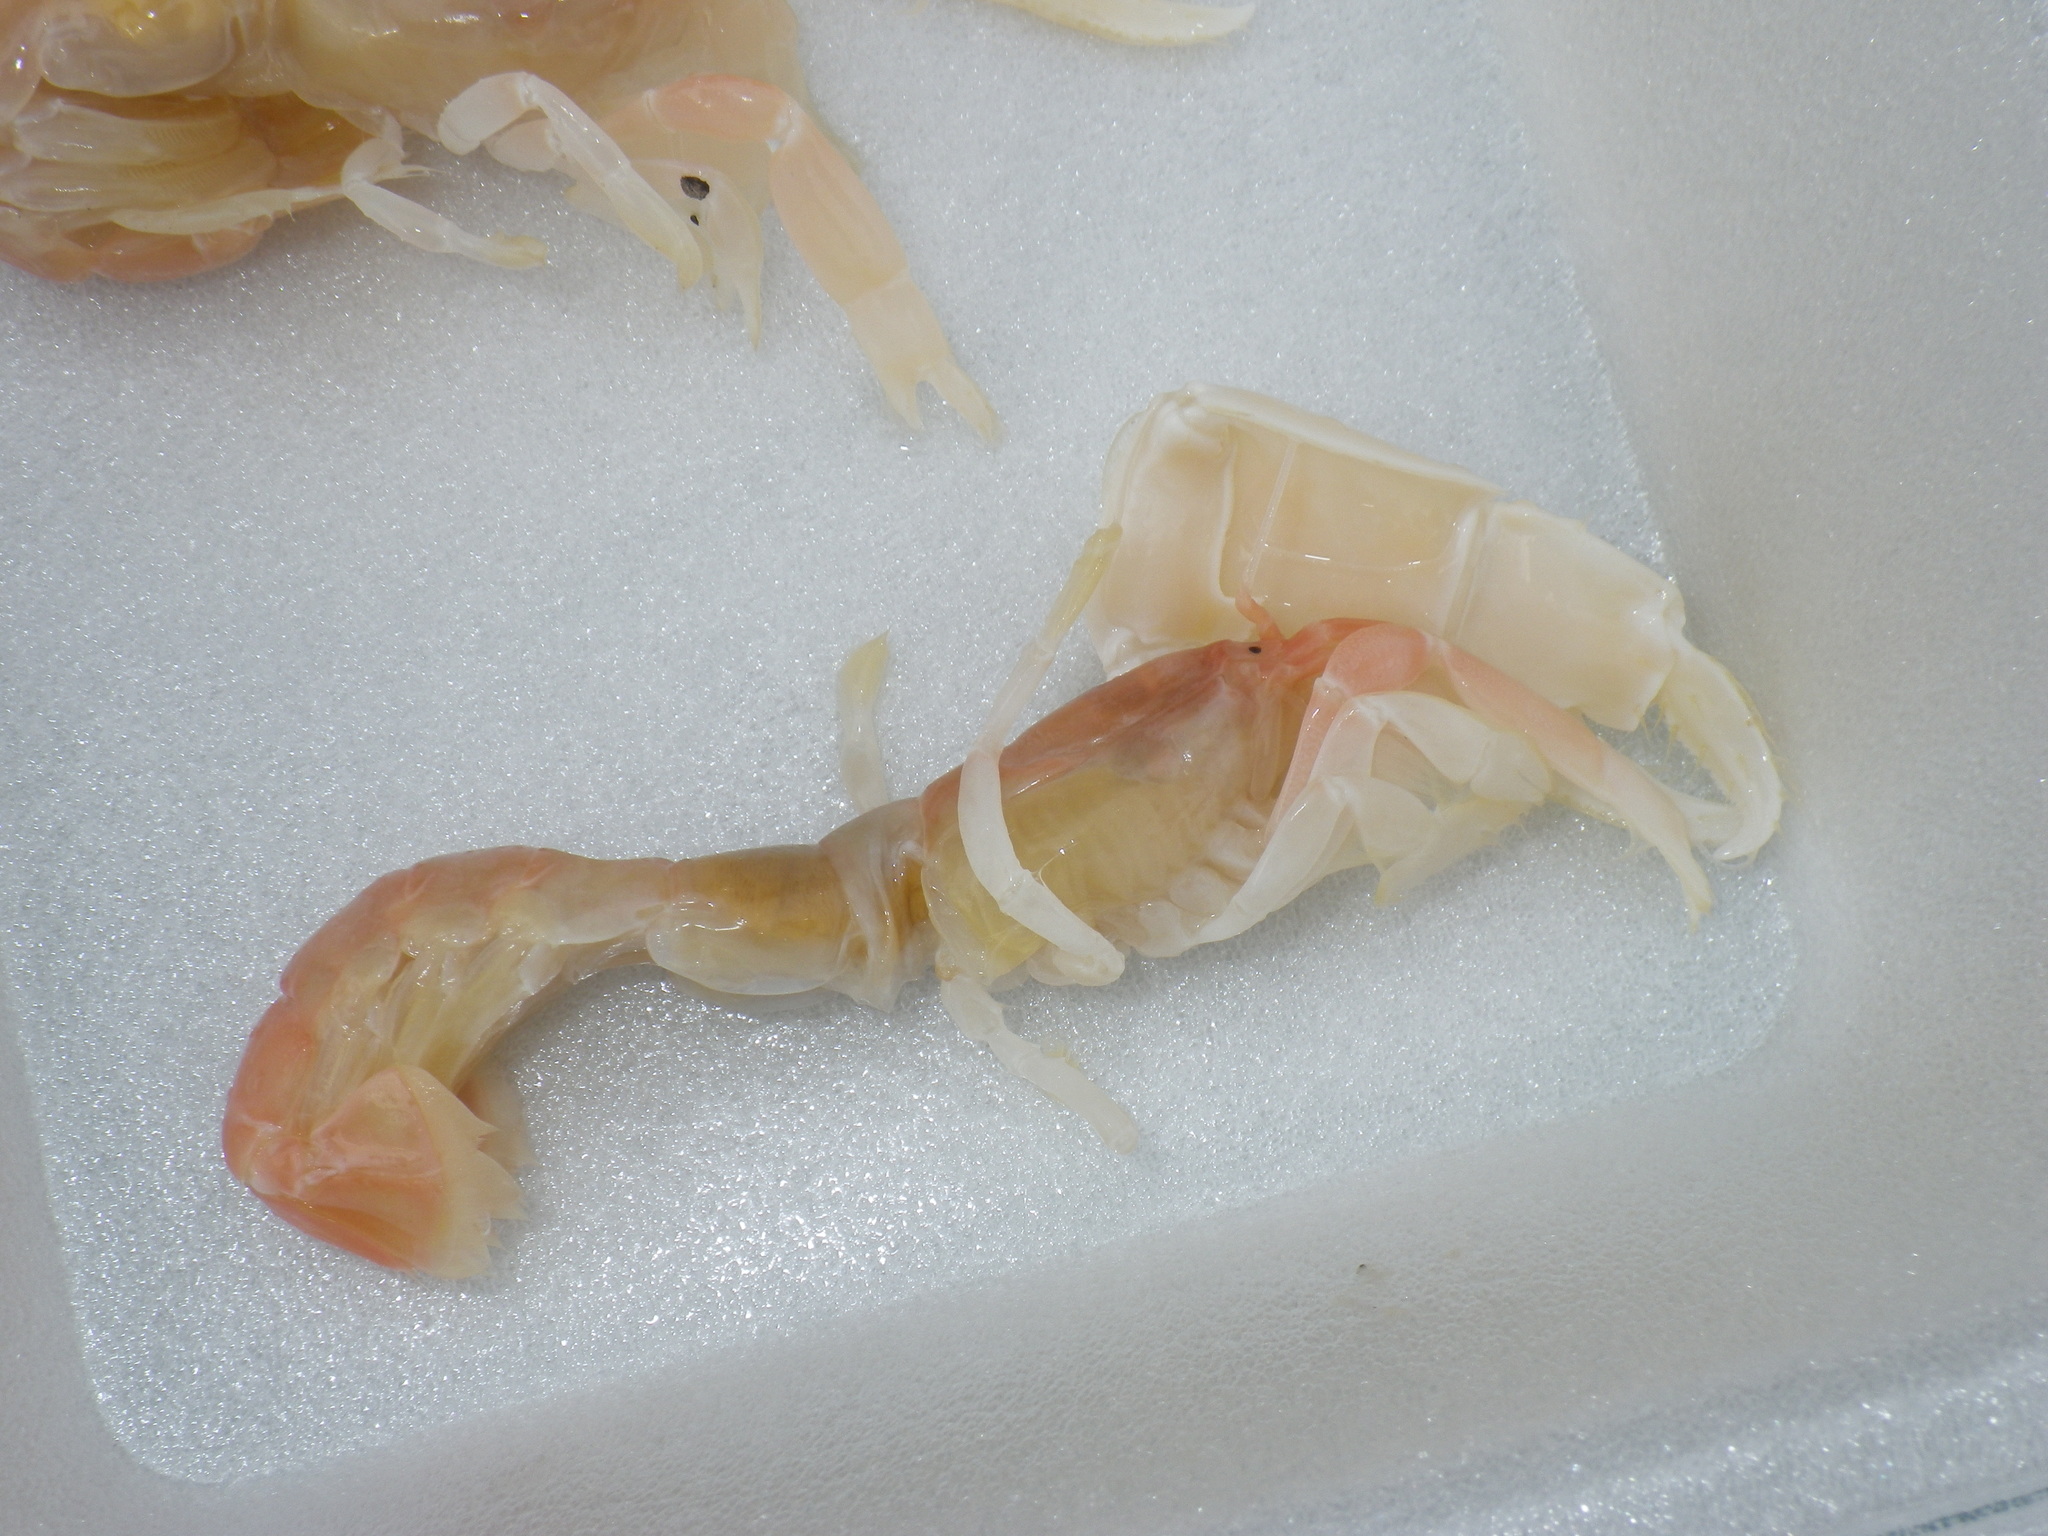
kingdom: Animalia
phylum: Arthropoda
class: Malacostraca
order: Decapoda
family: Callianassidae
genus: Neotrypaea
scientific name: Neotrypaea californiensis
